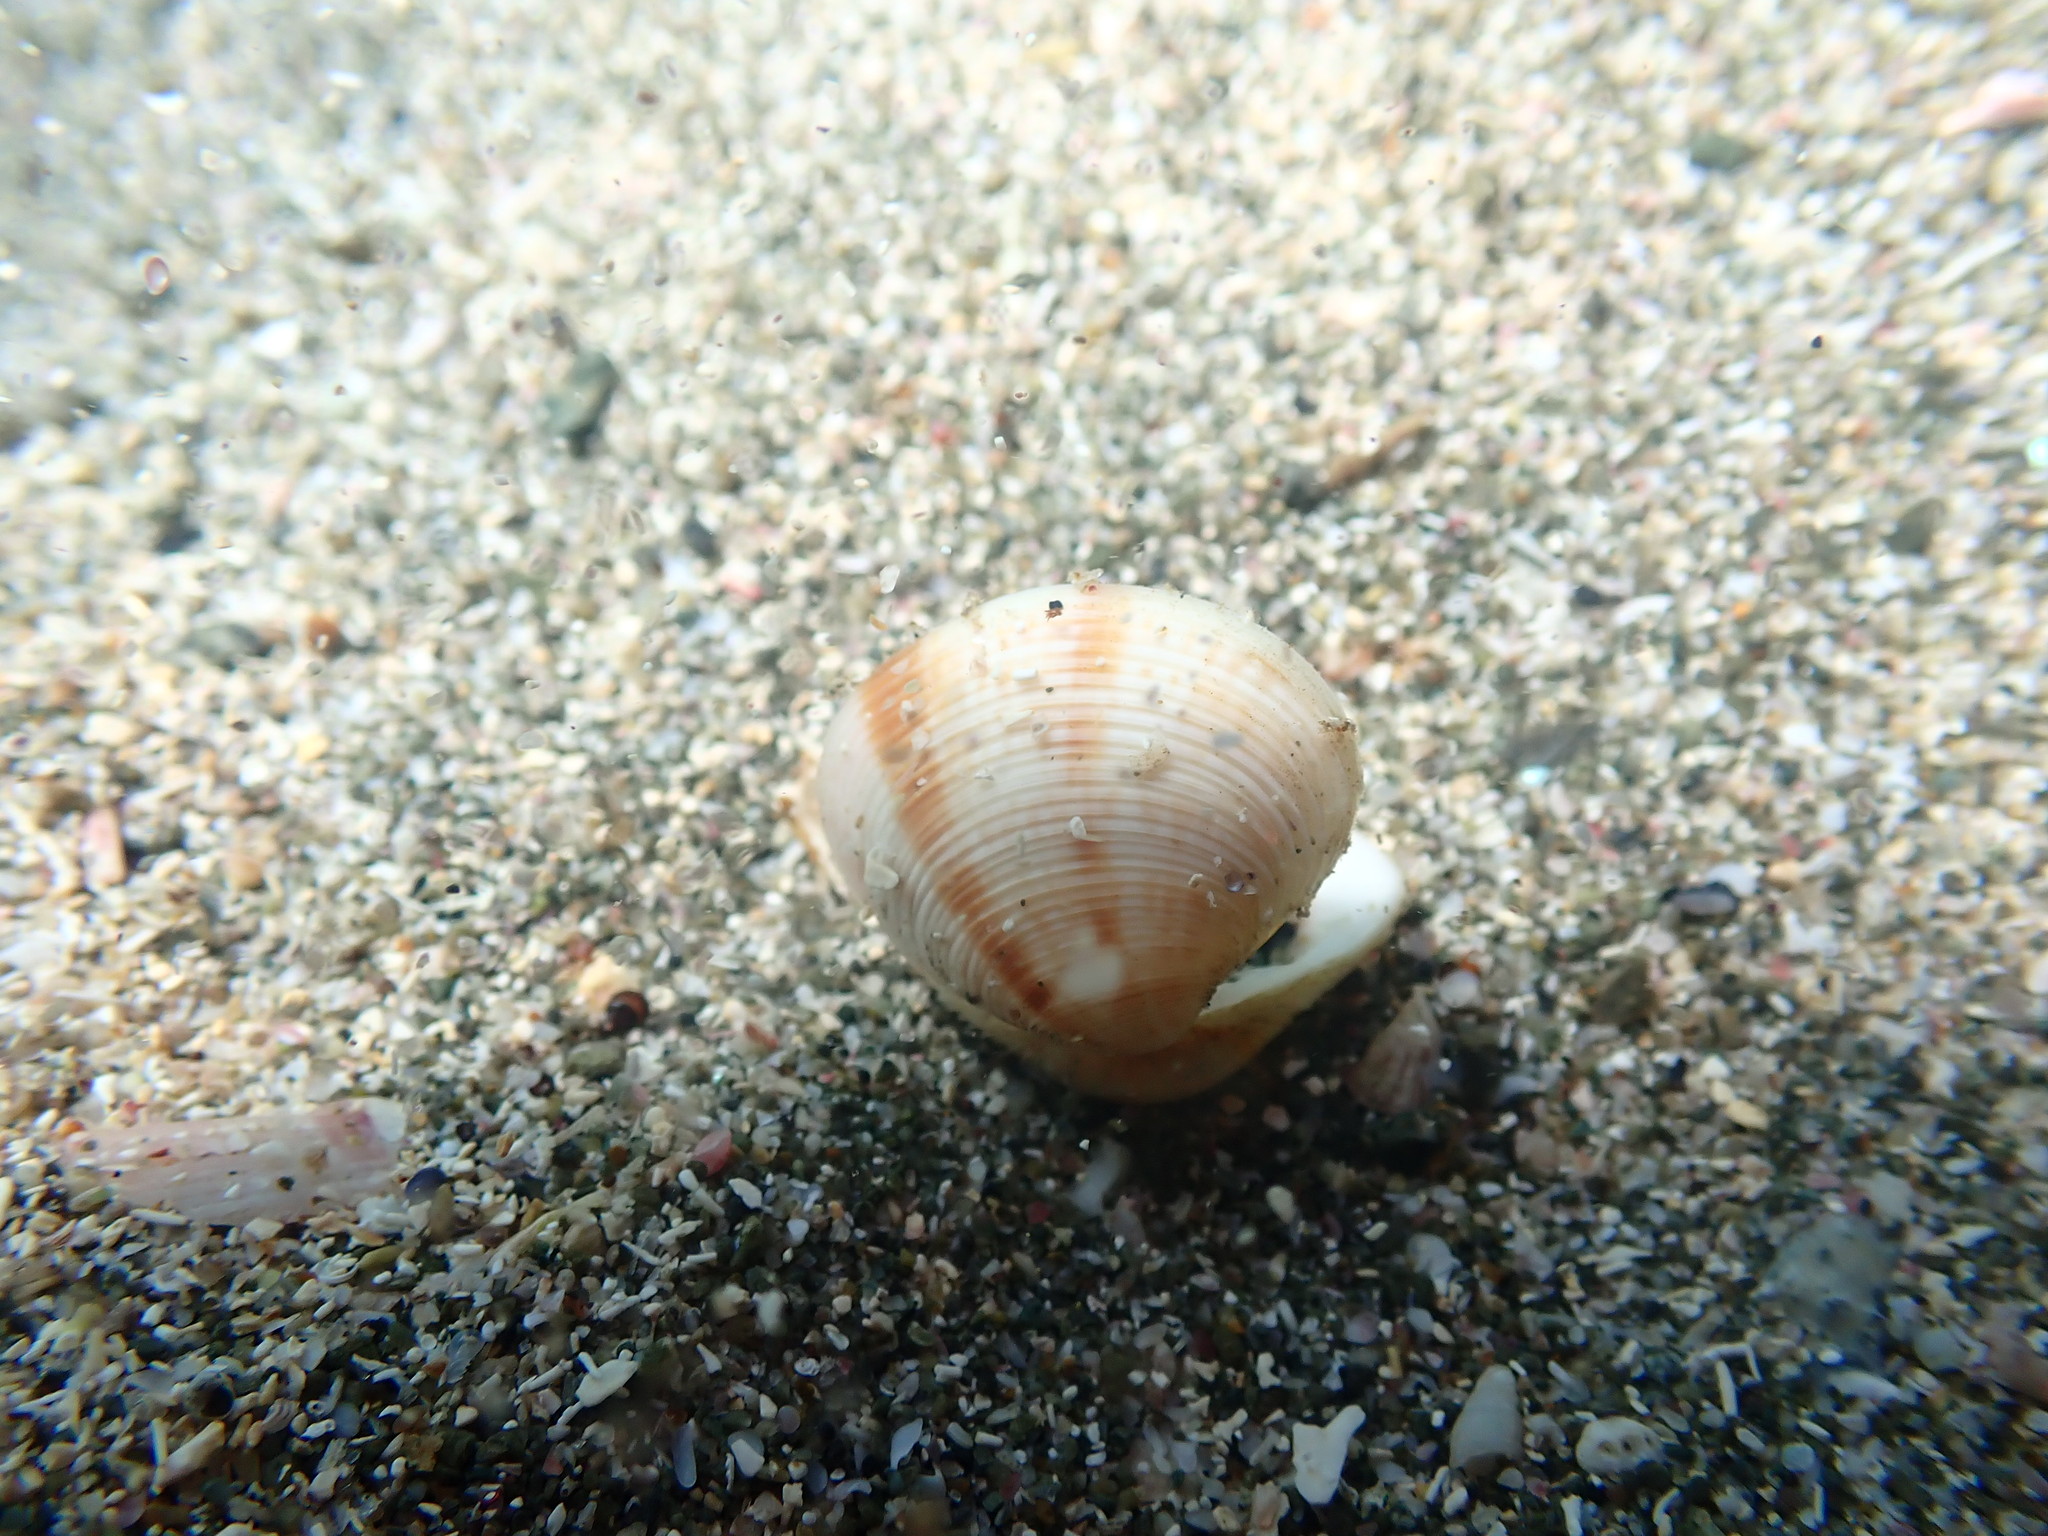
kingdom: Animalia
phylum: Mollusca
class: Bivalvia
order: Venerida
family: Veneridae
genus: Tawera
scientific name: Tawera spissa
